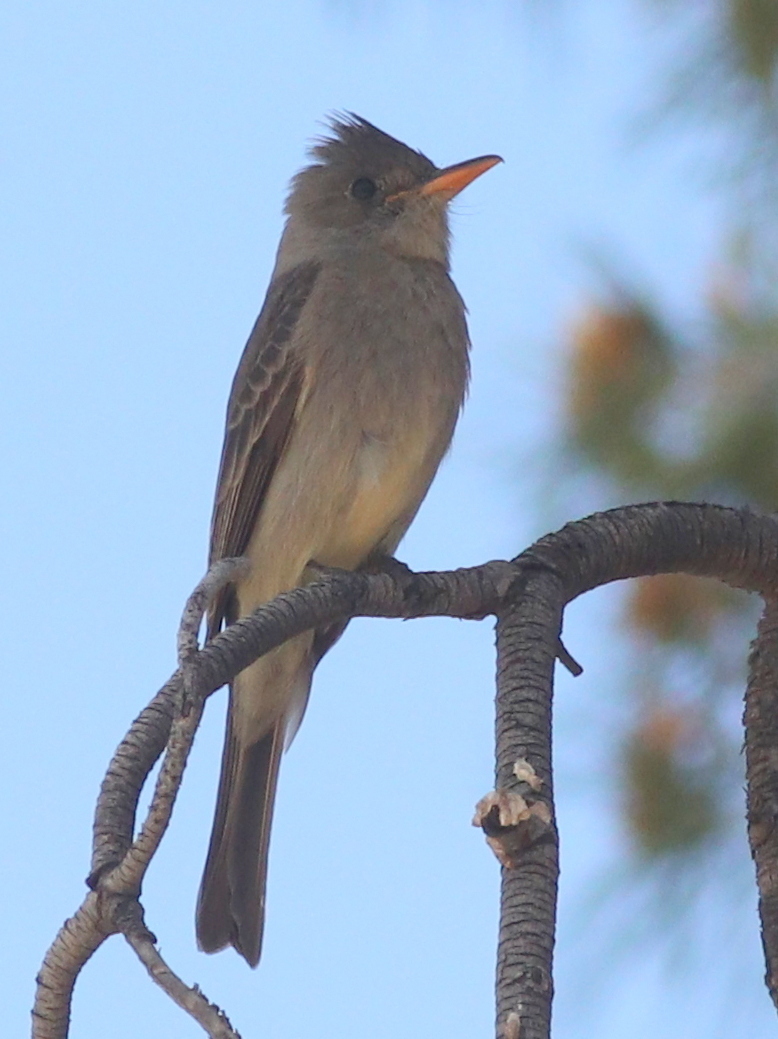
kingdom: Animalia
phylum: Chordata
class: Aves
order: Passeriformes
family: Tyrannidae
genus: Contopus
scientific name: Contopus pertinax
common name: Greater pewee
